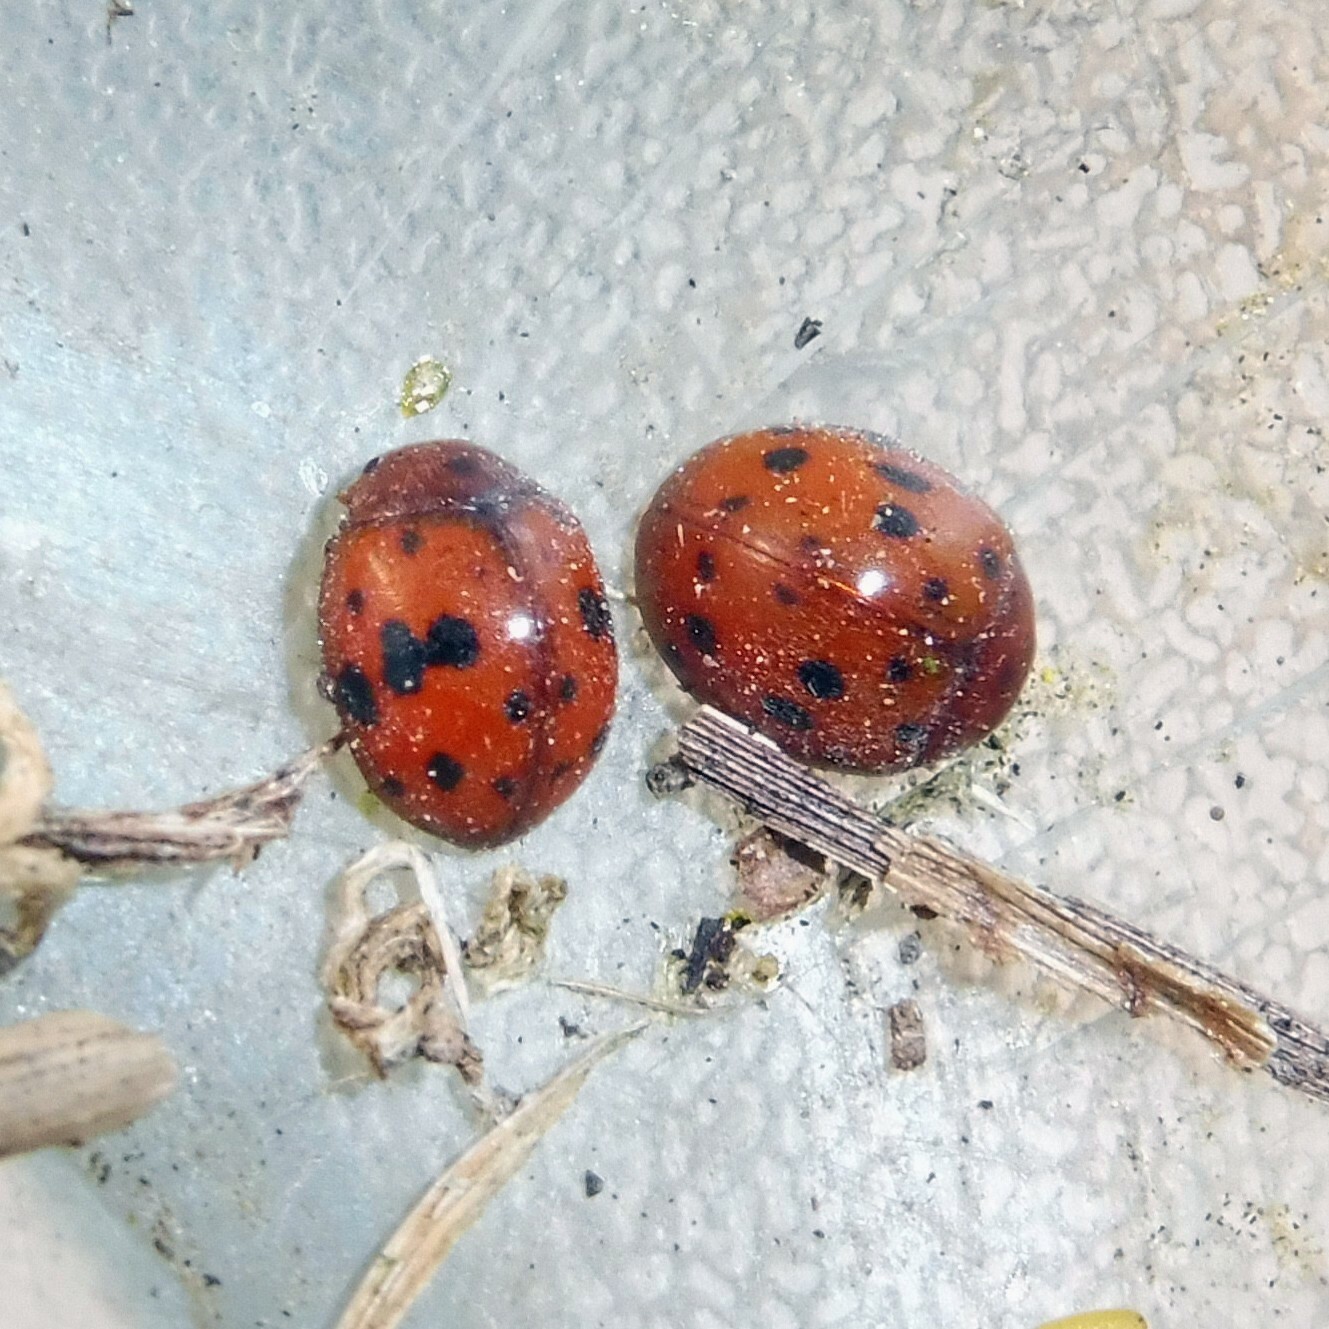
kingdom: Animalia
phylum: Arthropoda
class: Insecta
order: Coleoptera
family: Coccinellidae
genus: Subcoccinella
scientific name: Subcoccinella vigintiquatuorpunctata
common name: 24-spot ladybird
